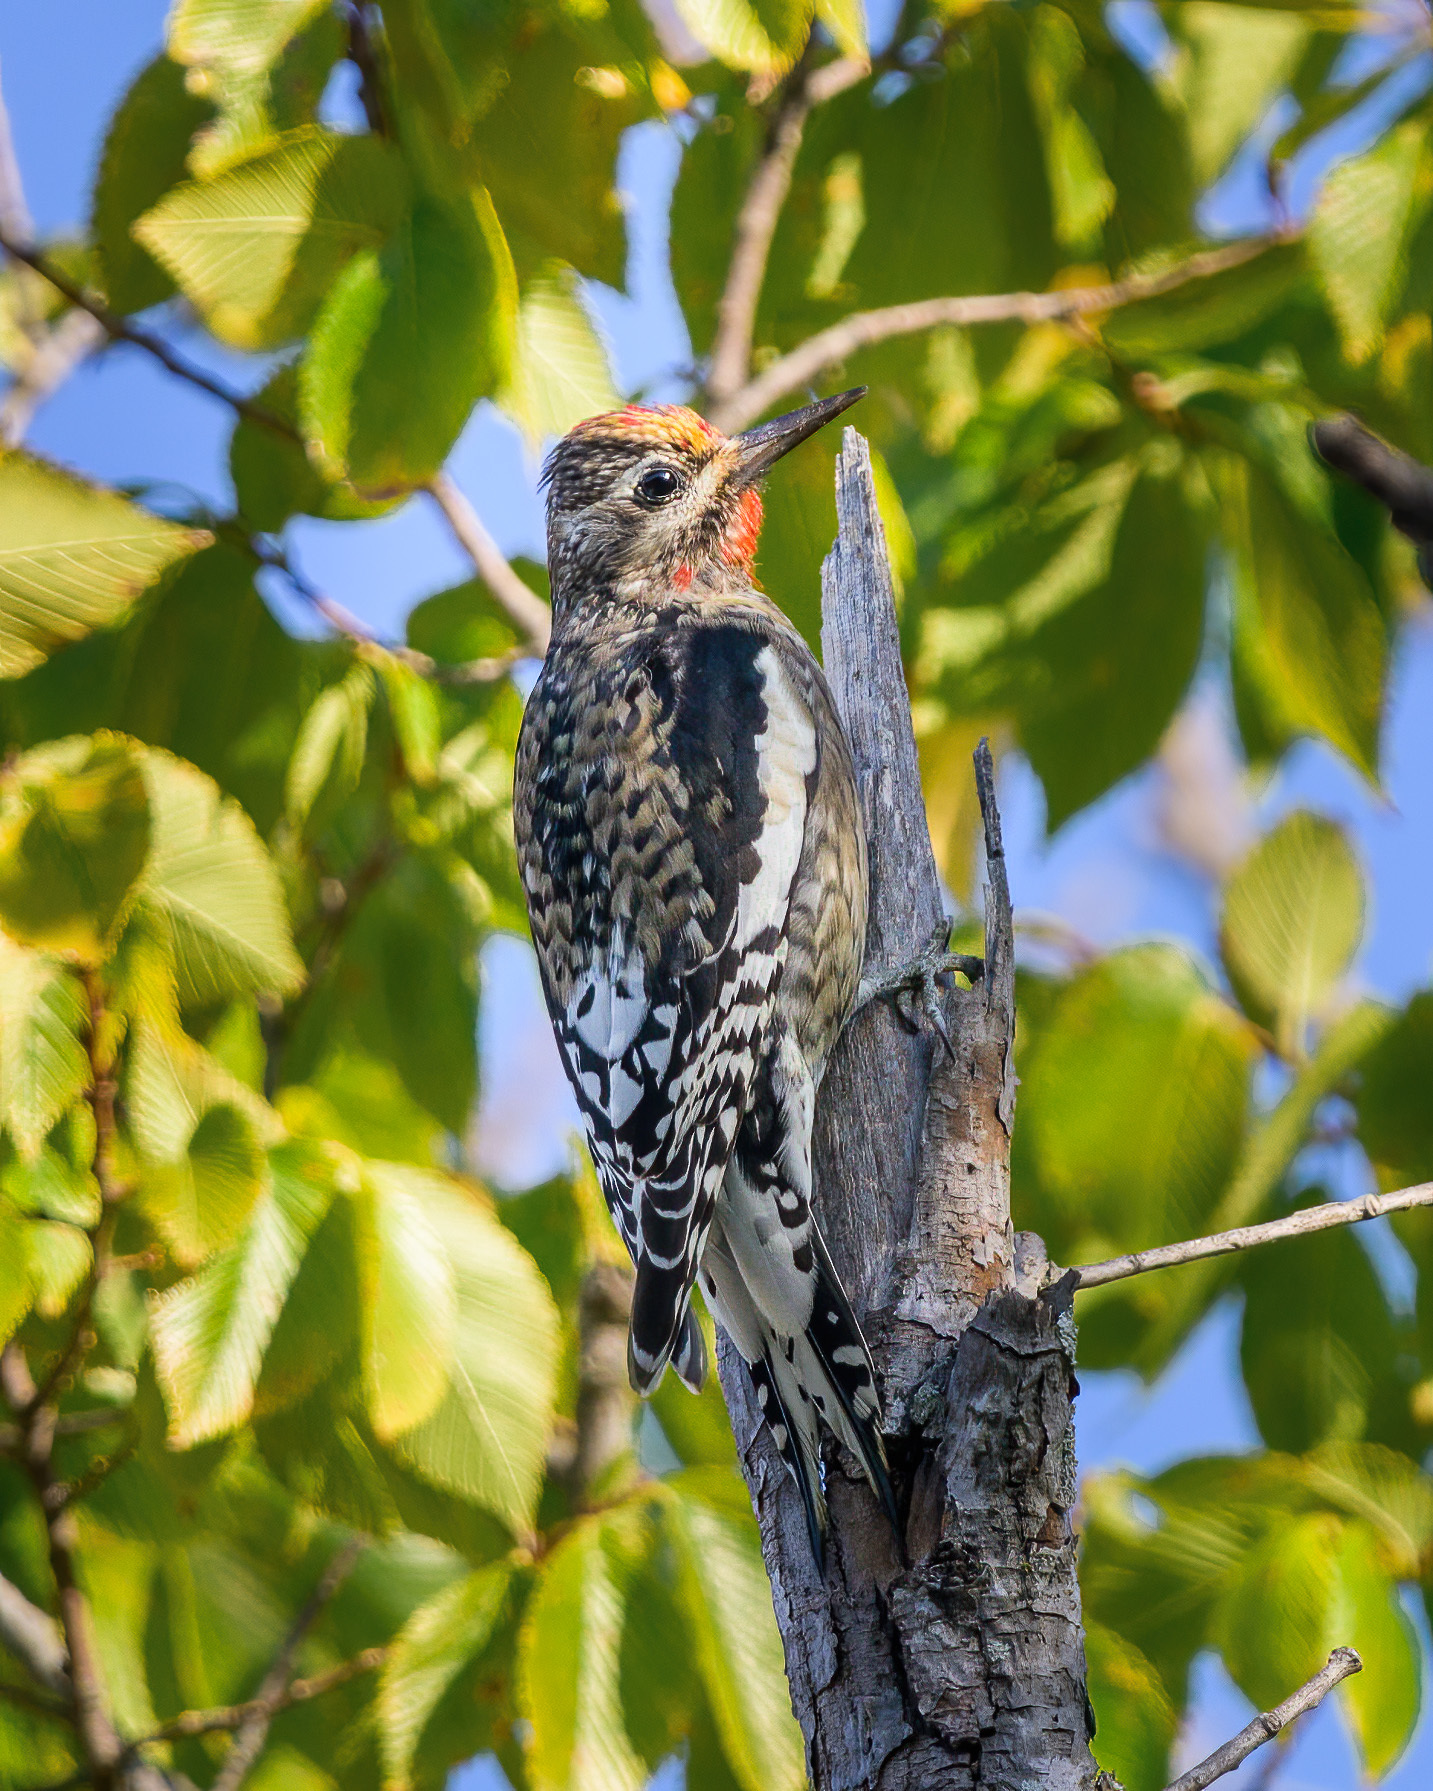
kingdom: Animalia
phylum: Chordata
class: Aves
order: Piciformes
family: Picidae
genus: Sphyrapicus
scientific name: Sphyrapicus varius
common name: Yellow-bellied sapsucker
